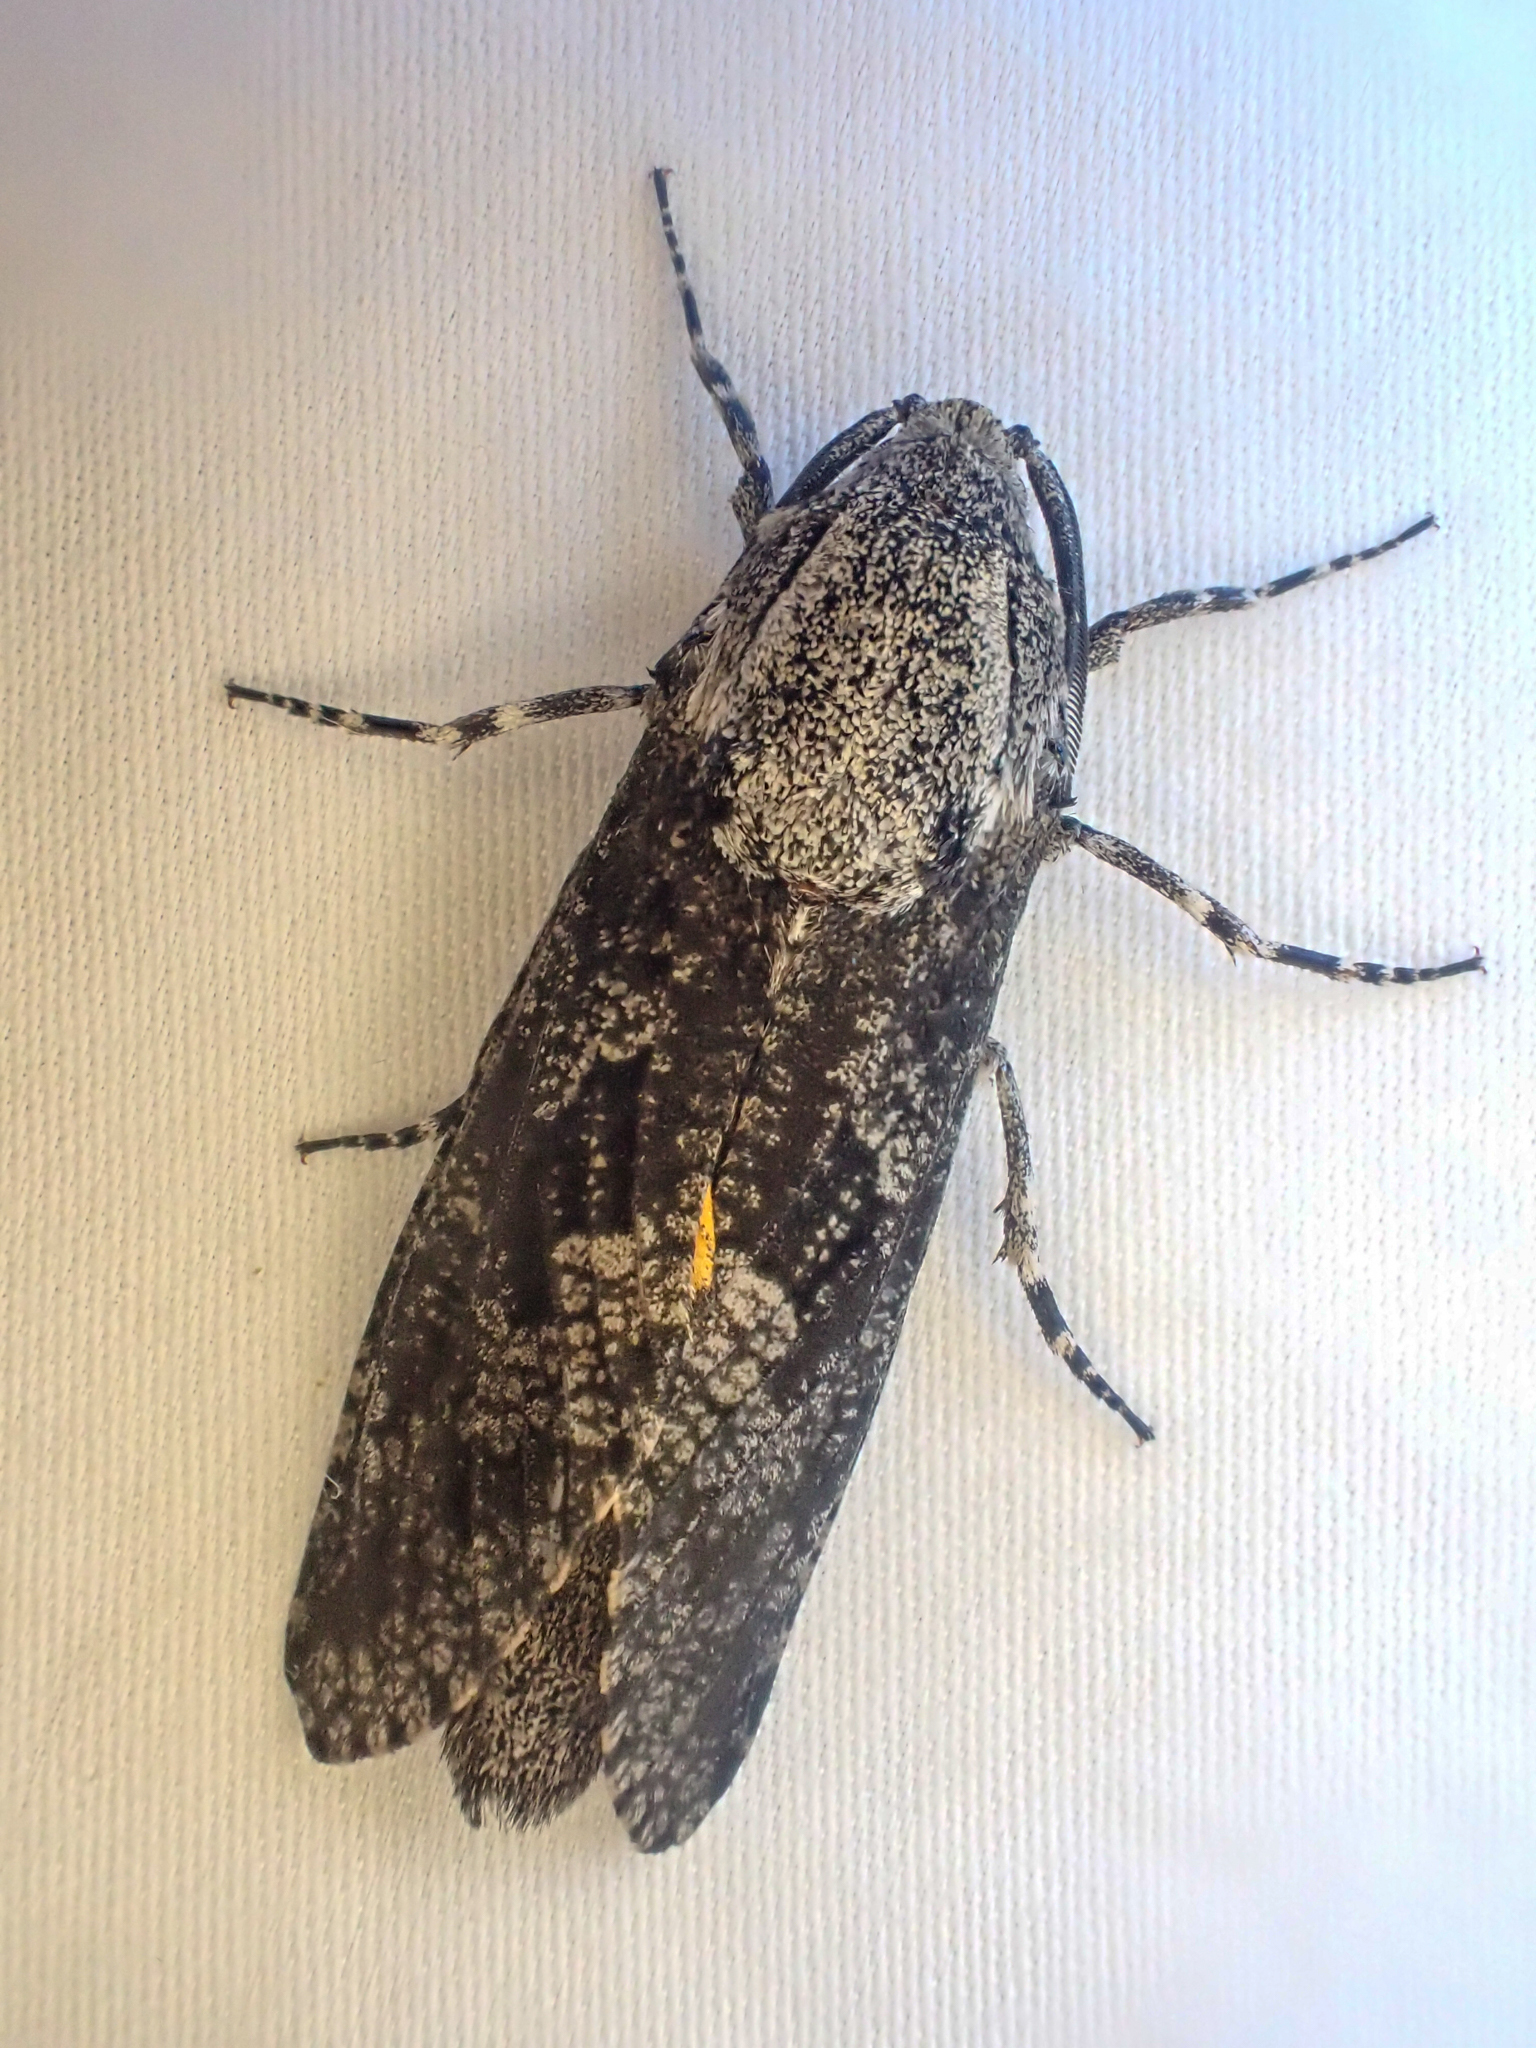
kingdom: Animalia
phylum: Arthropoda
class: Insecta
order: Lepidoptera
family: Cossidae
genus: Prionoxystus
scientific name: Prionoxystus robiniae
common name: Carpenterworm
